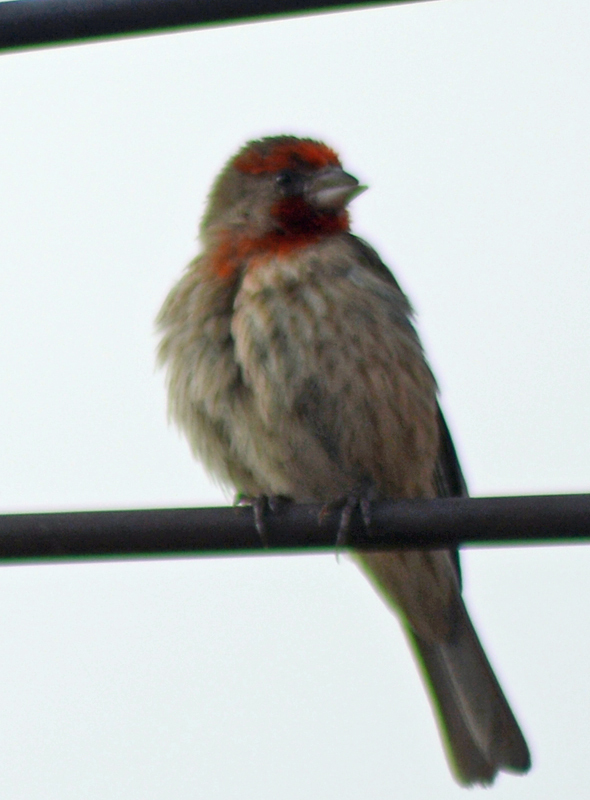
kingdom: Animalia
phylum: Chordata
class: Aves
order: Passeriformes
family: Fringillidae
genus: Haemorhous
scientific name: Haemorhous mexicanus
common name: House finch
